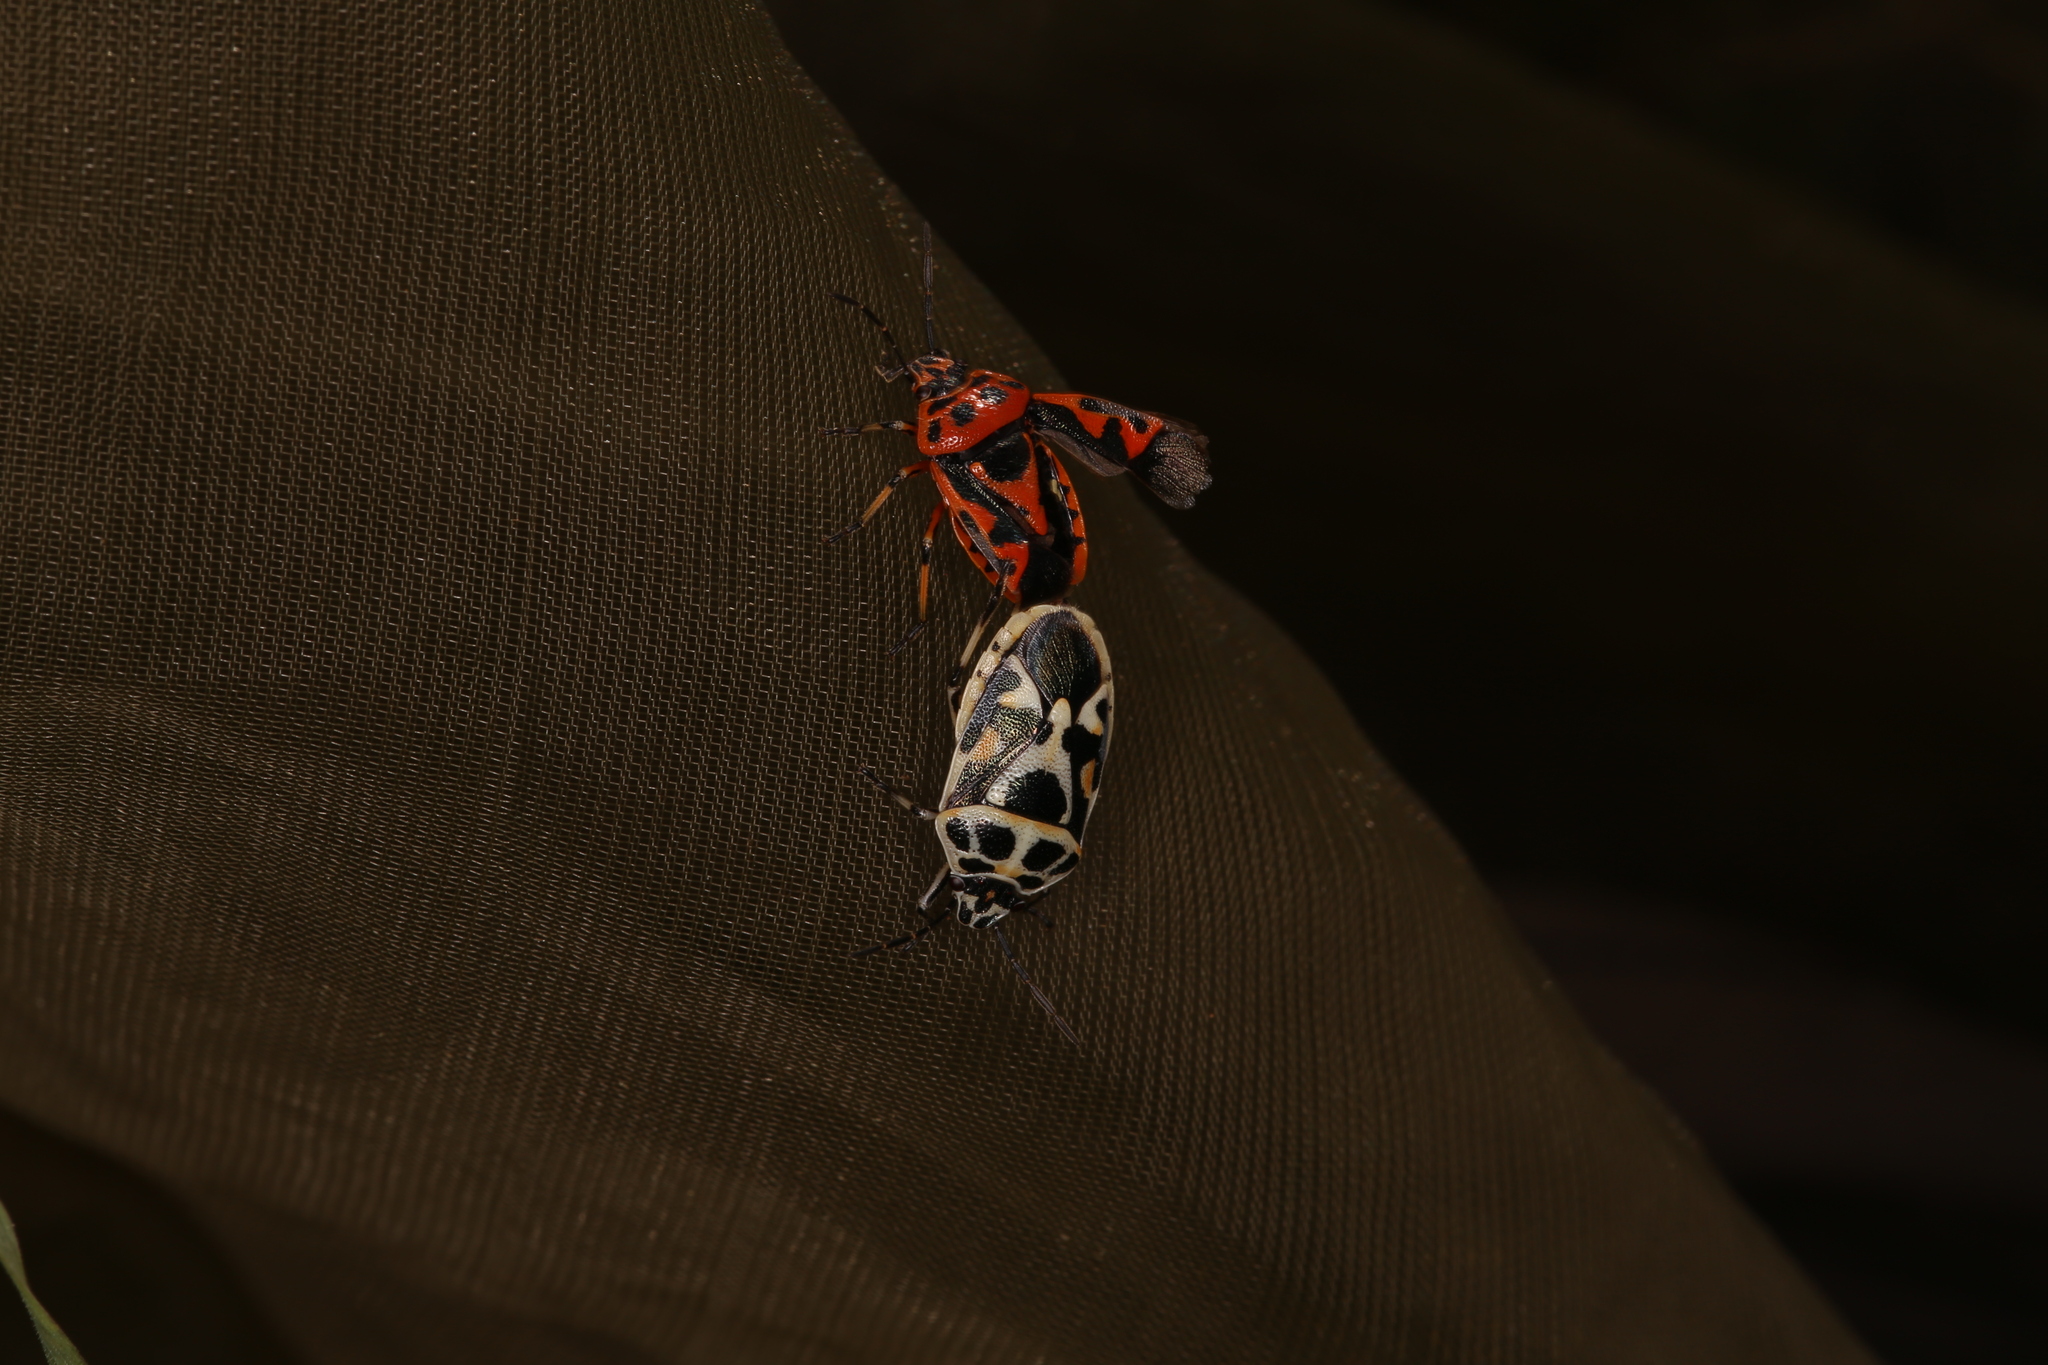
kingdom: Animalia
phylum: Arthropoda
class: Insecta
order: Hemiptera
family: Pentatomidae
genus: Eurydema
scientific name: Eurydema ornata
